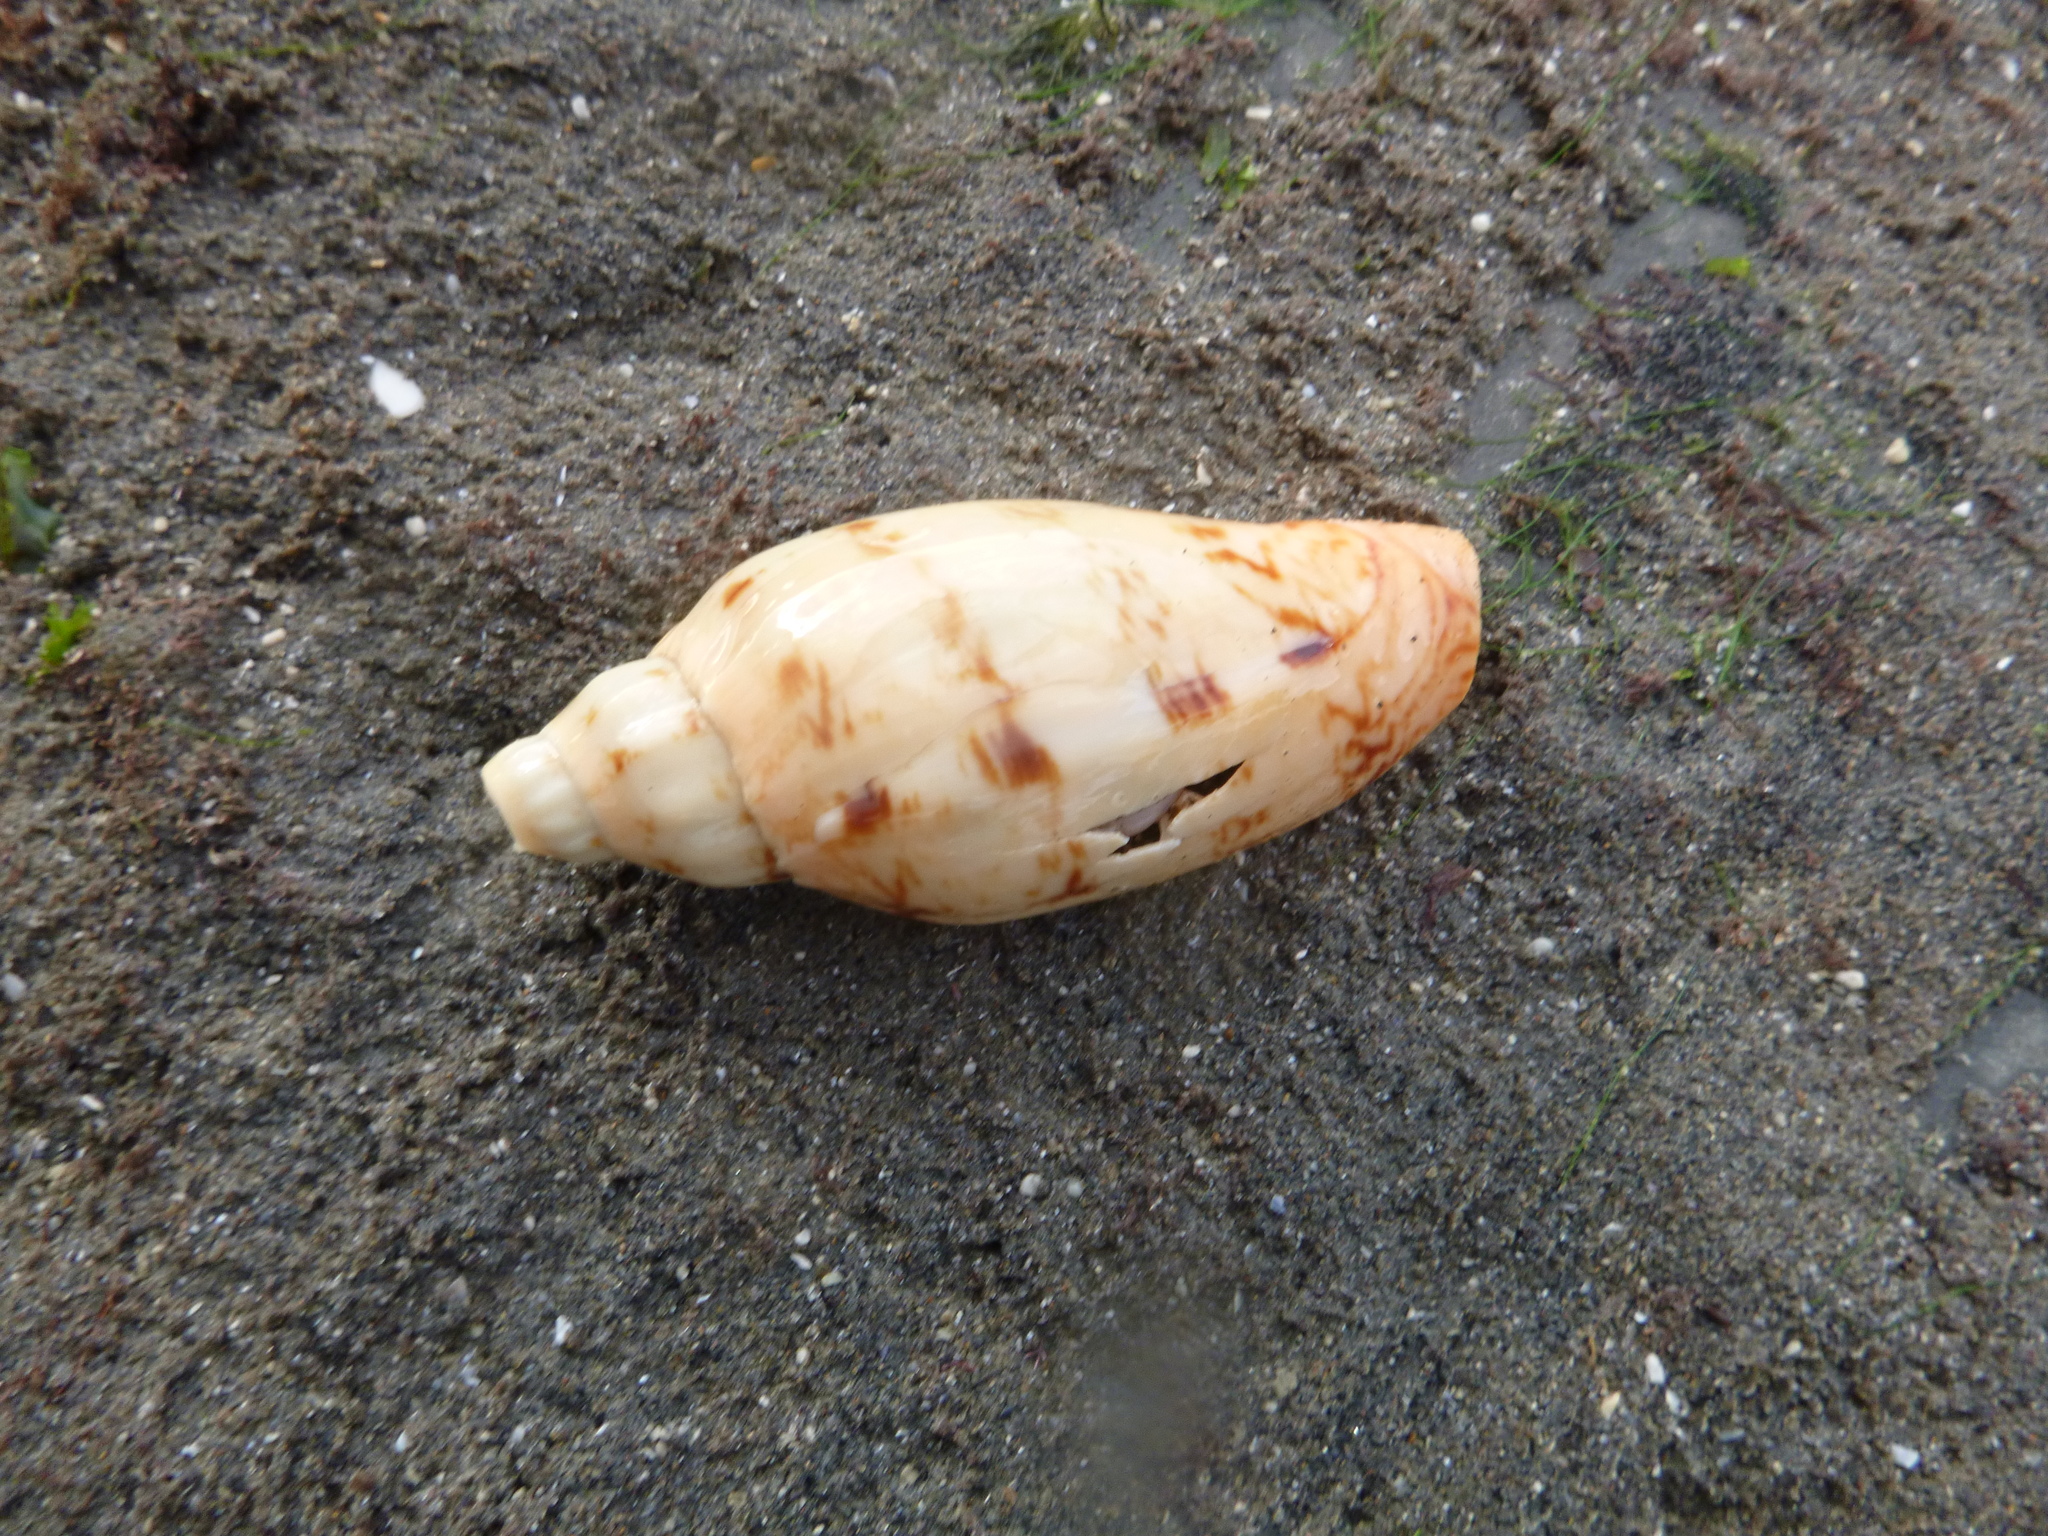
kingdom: Animalia
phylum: Mollusca
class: Gastropoda
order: Neogastropoda
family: Volutidae
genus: Alcithoe
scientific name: Alcithoe arabica
